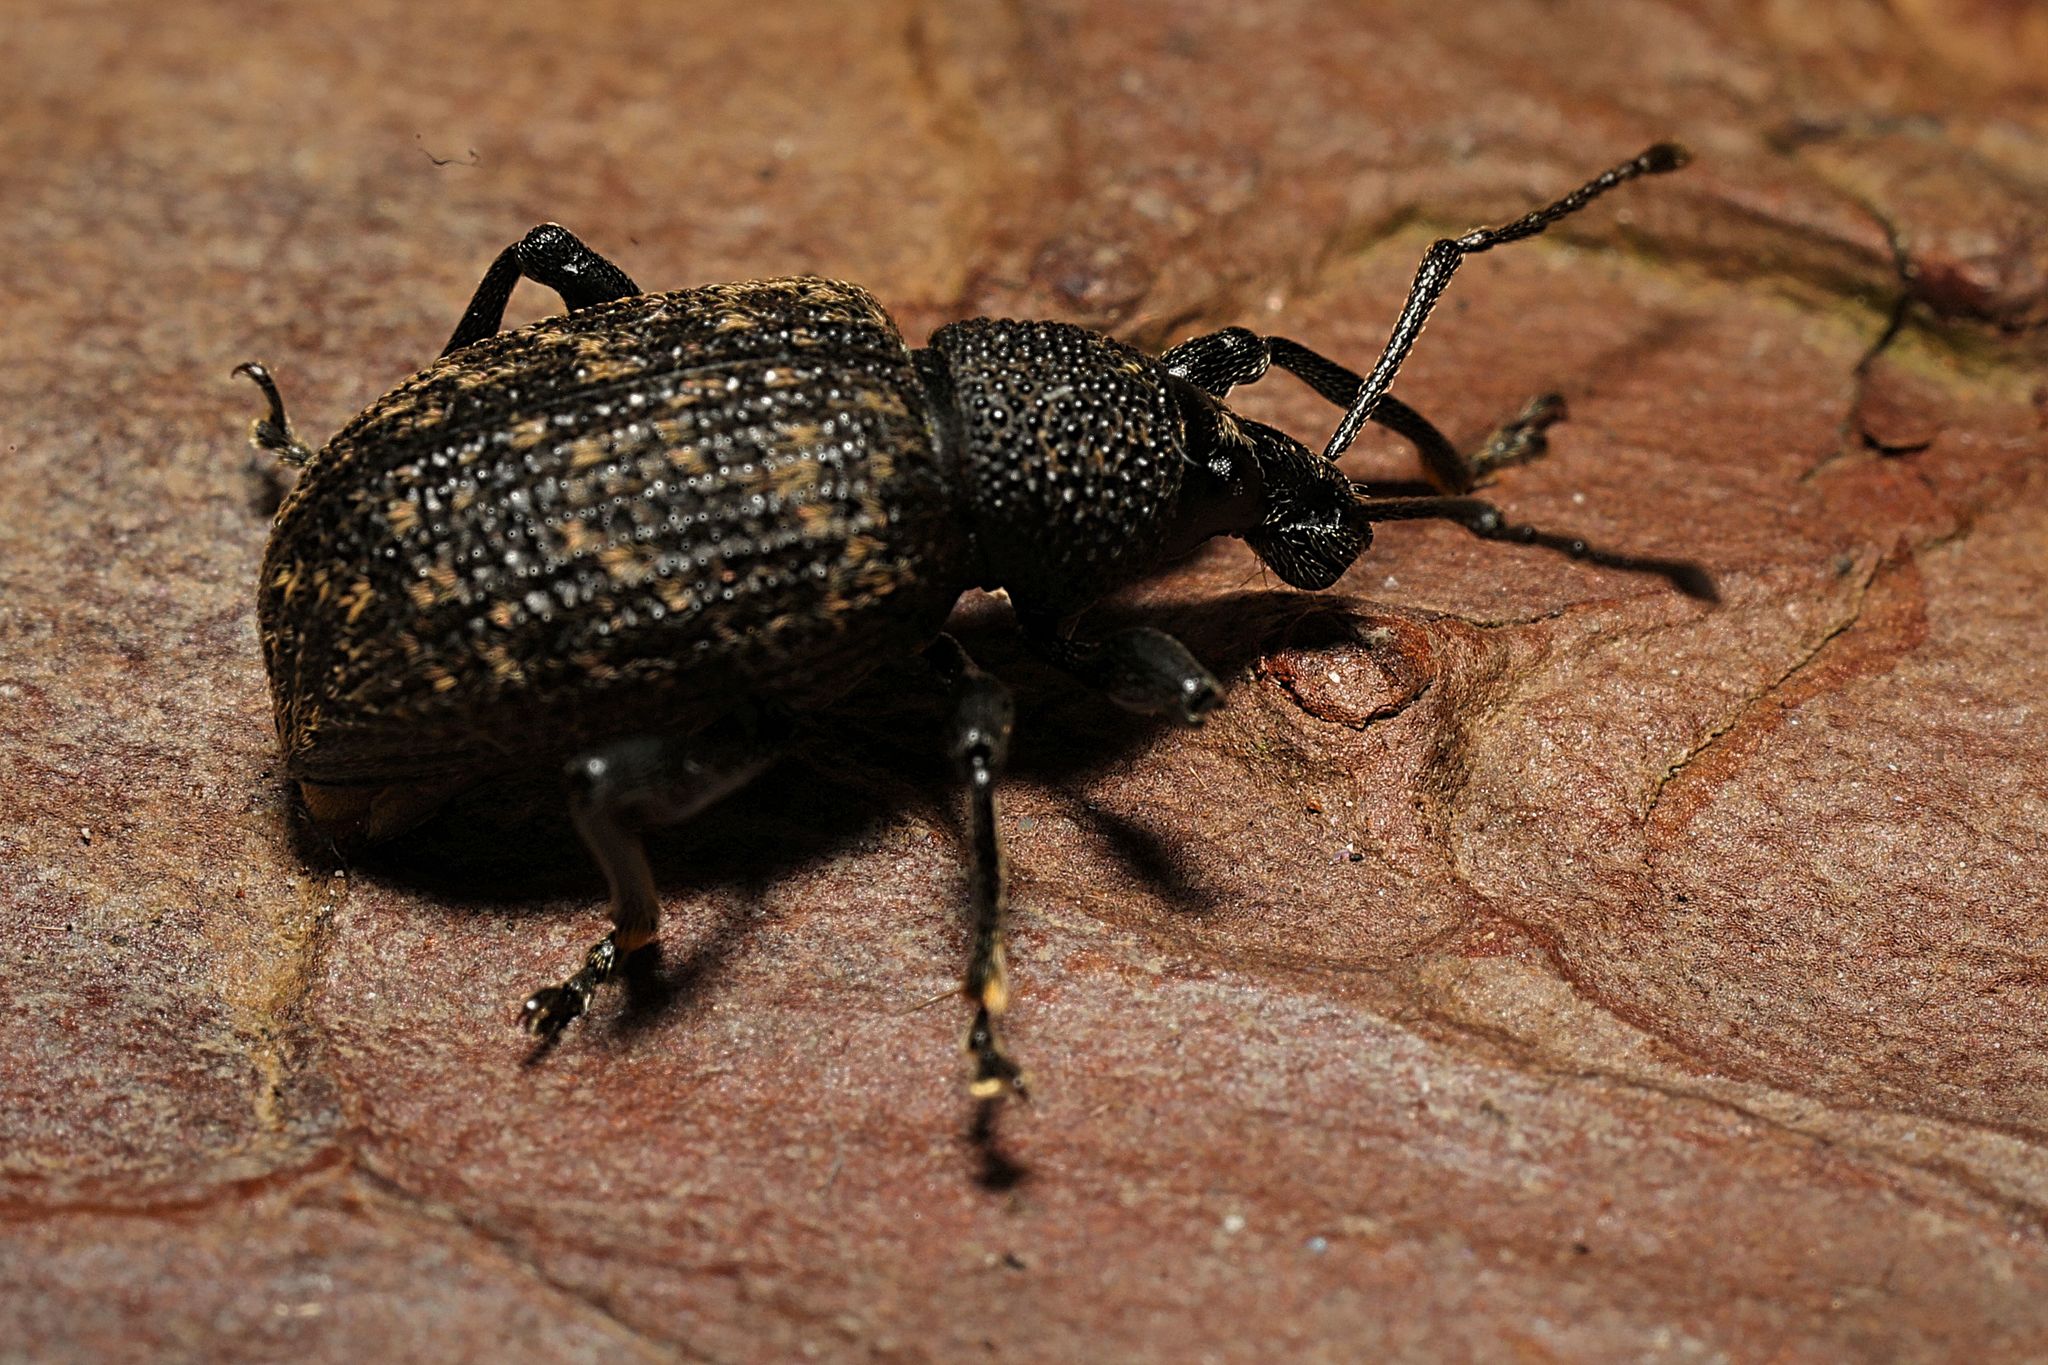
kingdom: Animalia
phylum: Arthropoda
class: Insecta
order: Coleoptera
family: Curculionidae
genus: Otiorhynchus
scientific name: Otiorhynchus sulcatus
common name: Black vine weevil
